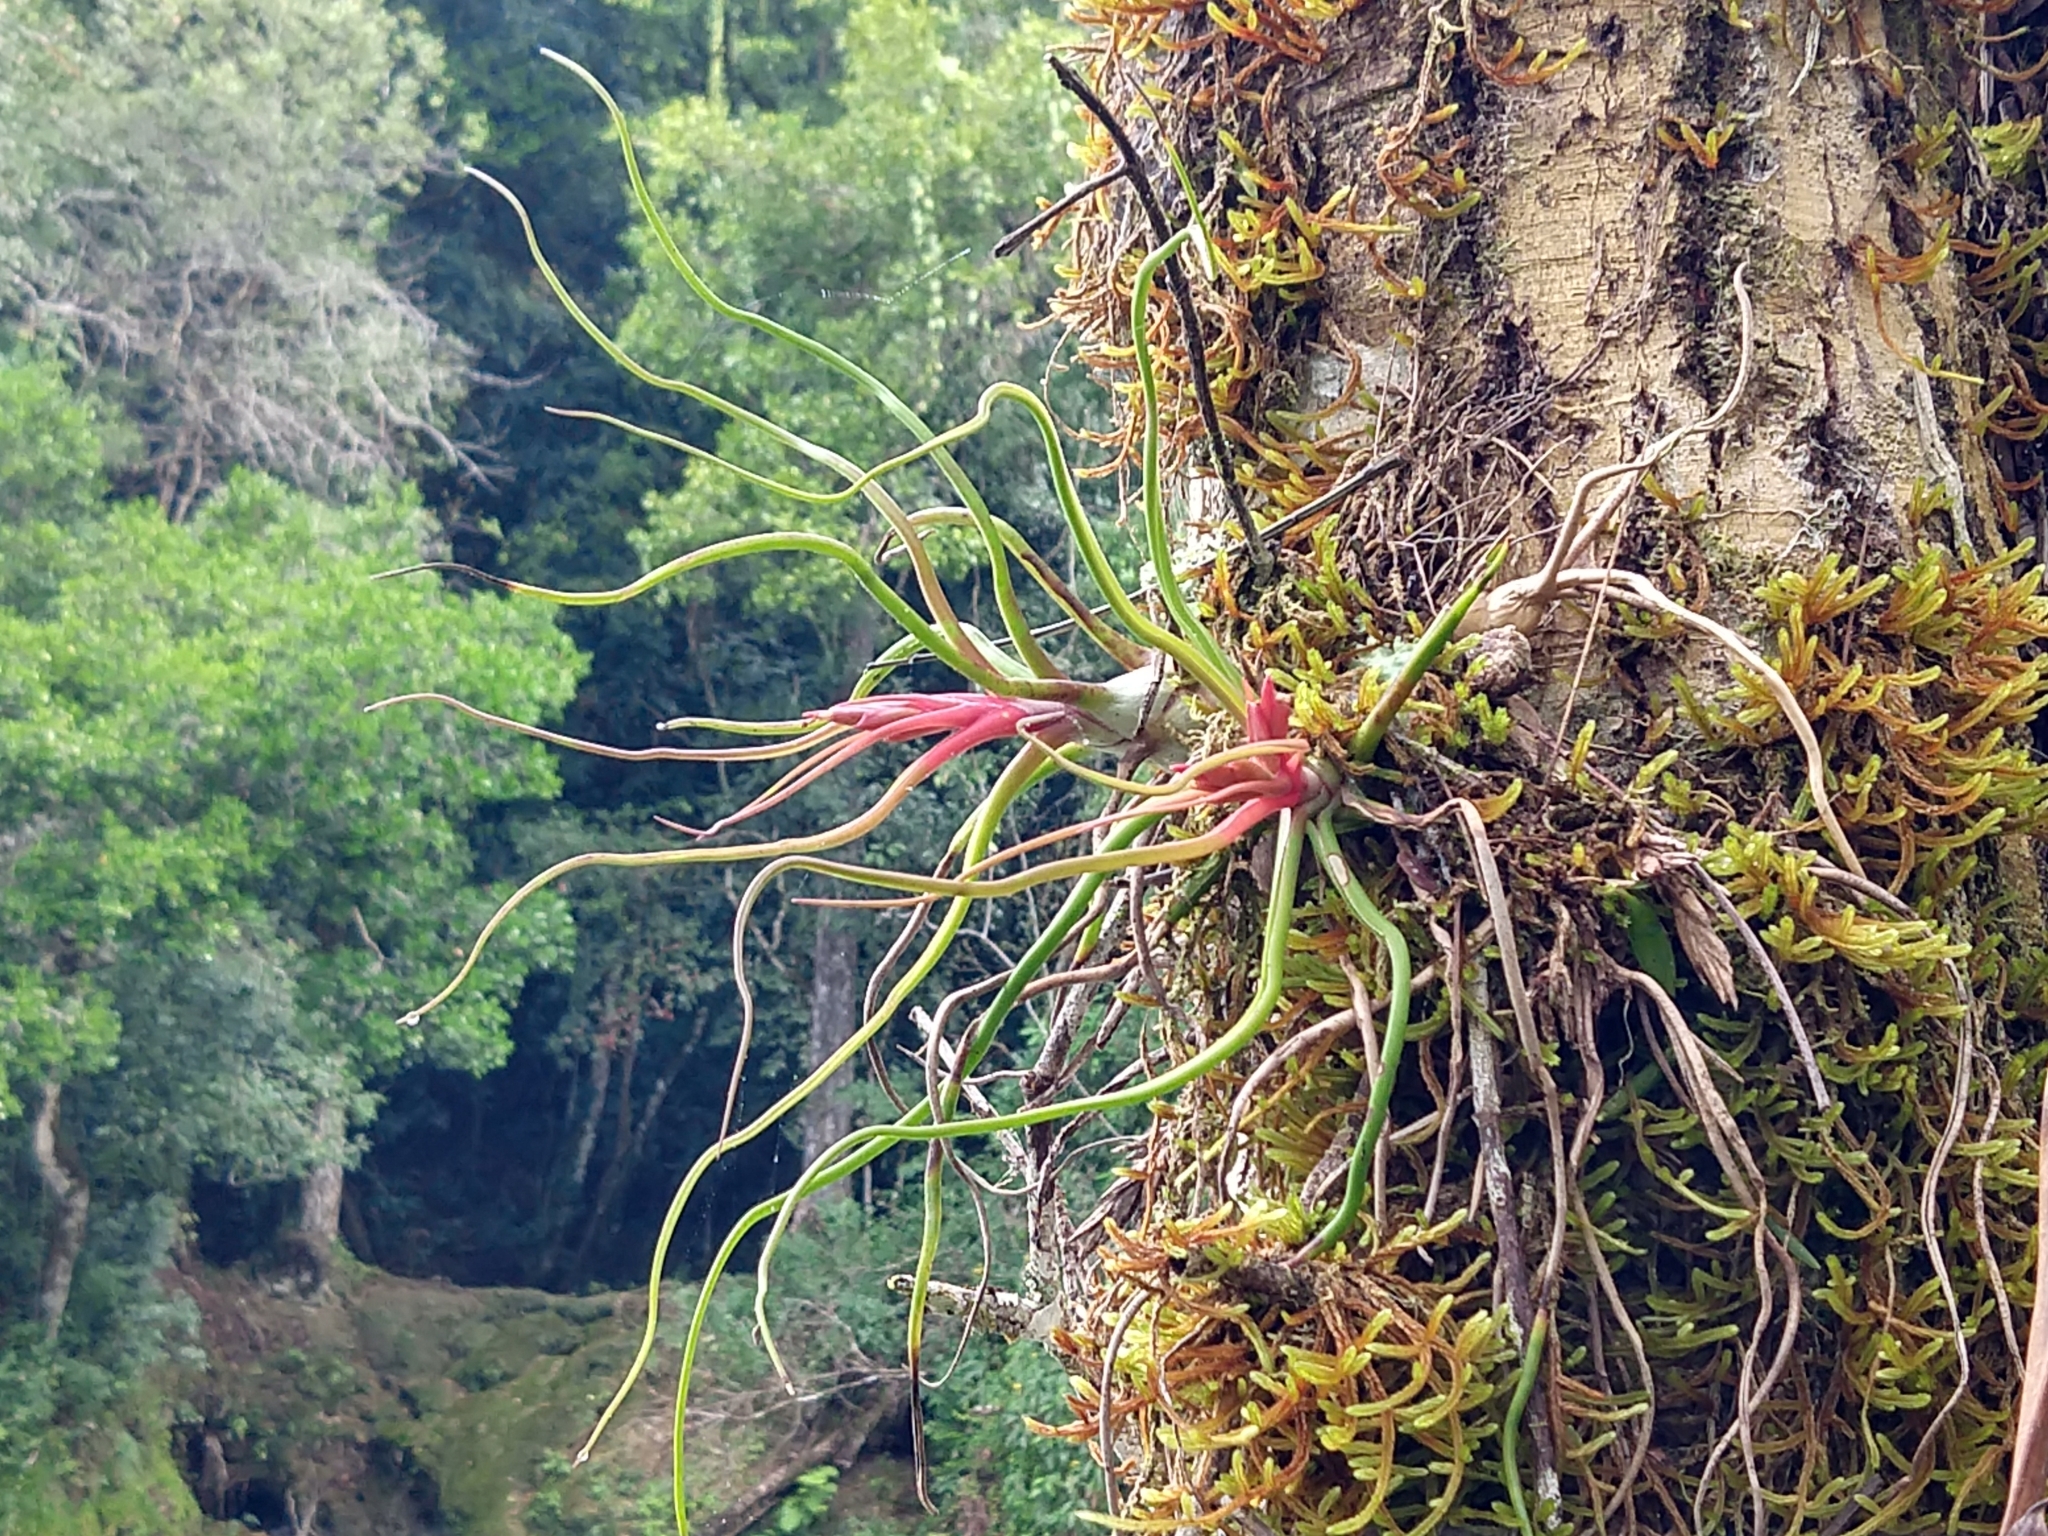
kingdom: Plantae
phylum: Tracheophyta
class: Liliopsida
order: Poales
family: Bromeliaceae
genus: Tillandsia
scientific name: Tillandsia bulbosa
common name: Bulbous airplant
